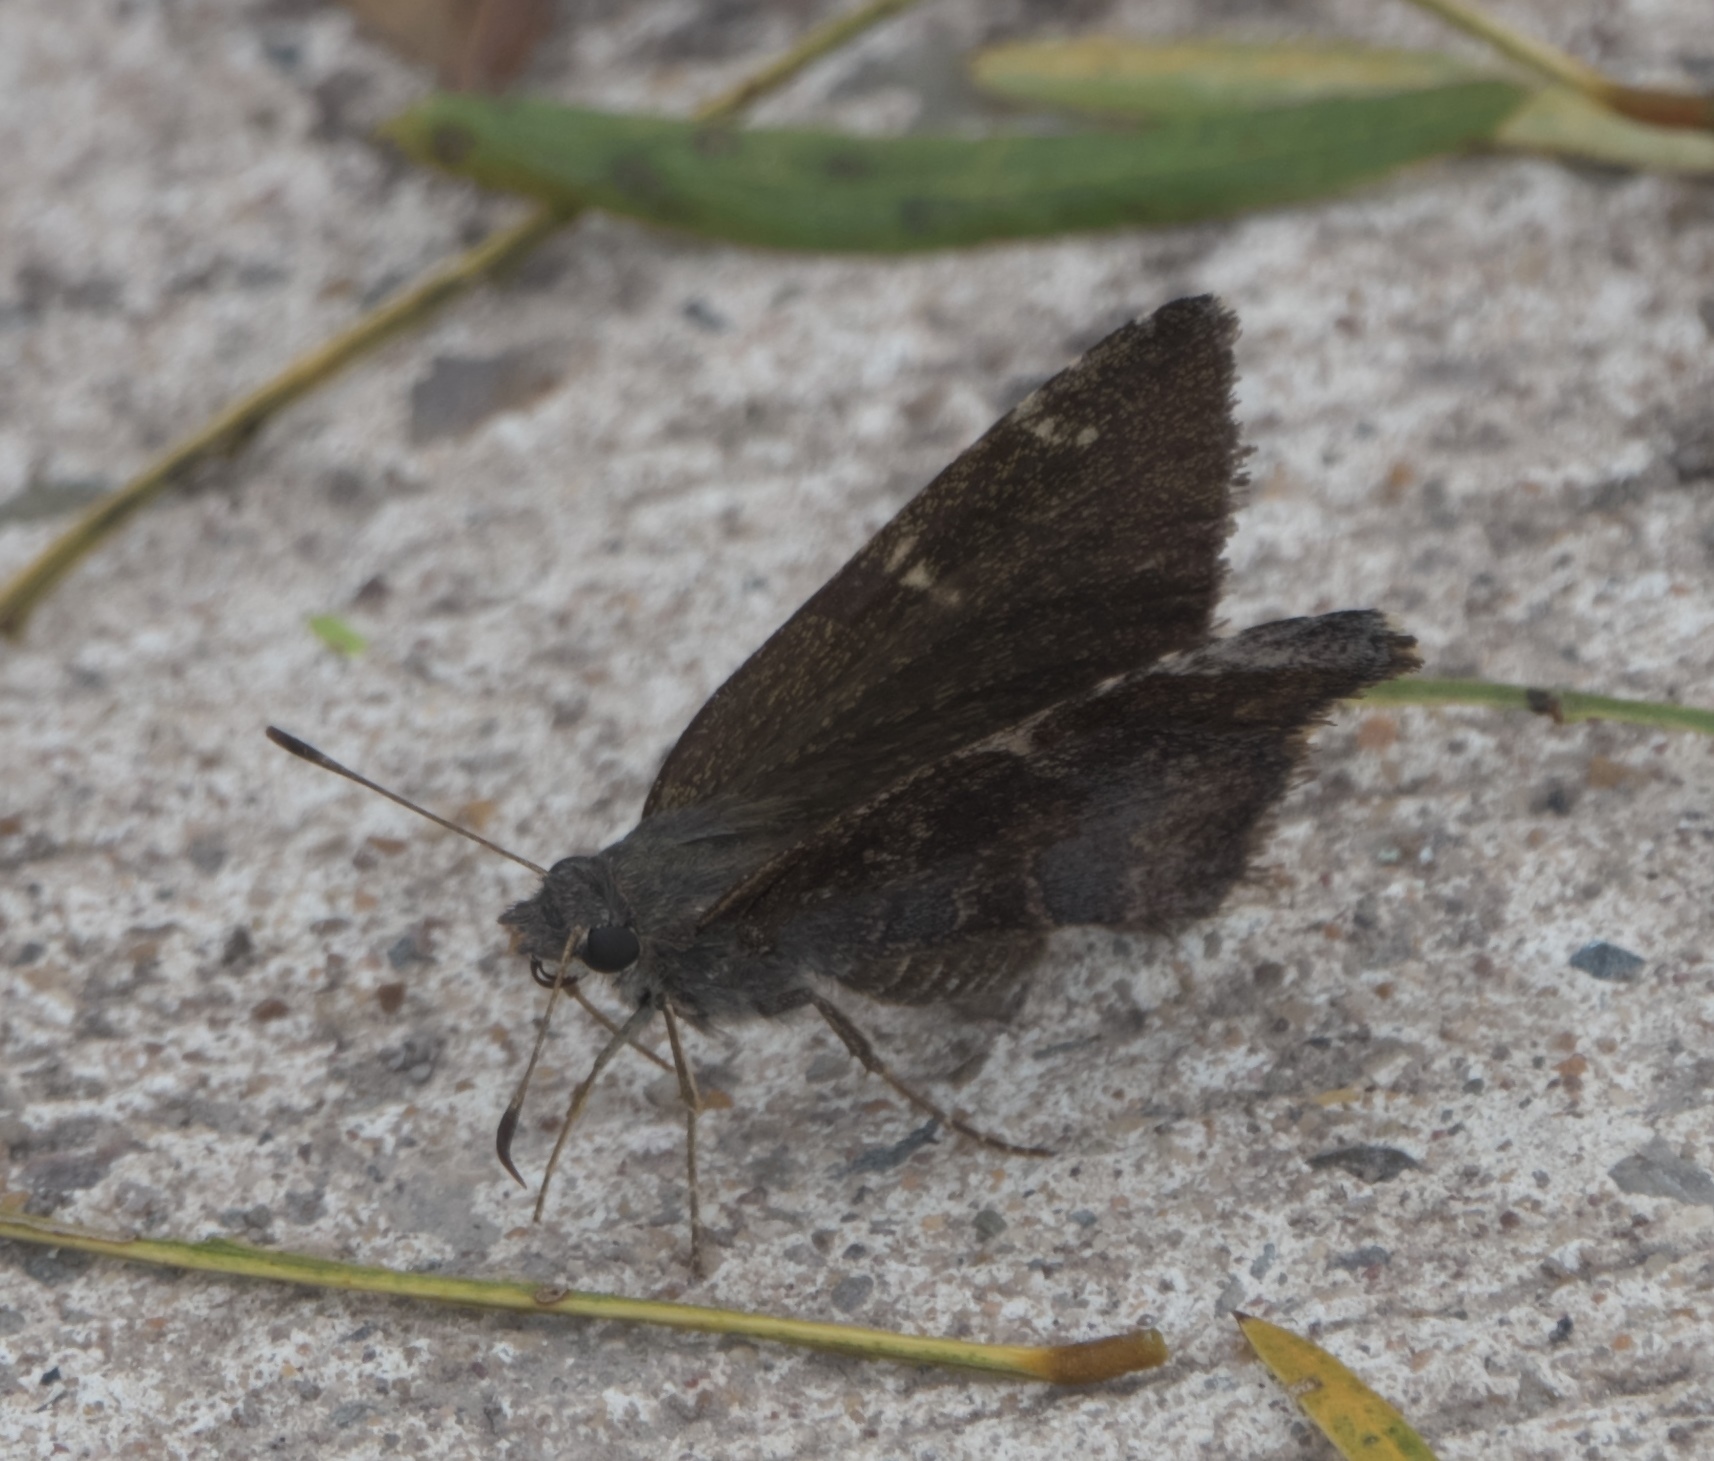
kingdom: Animalia
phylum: Arthropoda
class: Insecta
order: Lepidoptera
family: Hesperiidae
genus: Caicella
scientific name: Caicella calchas
